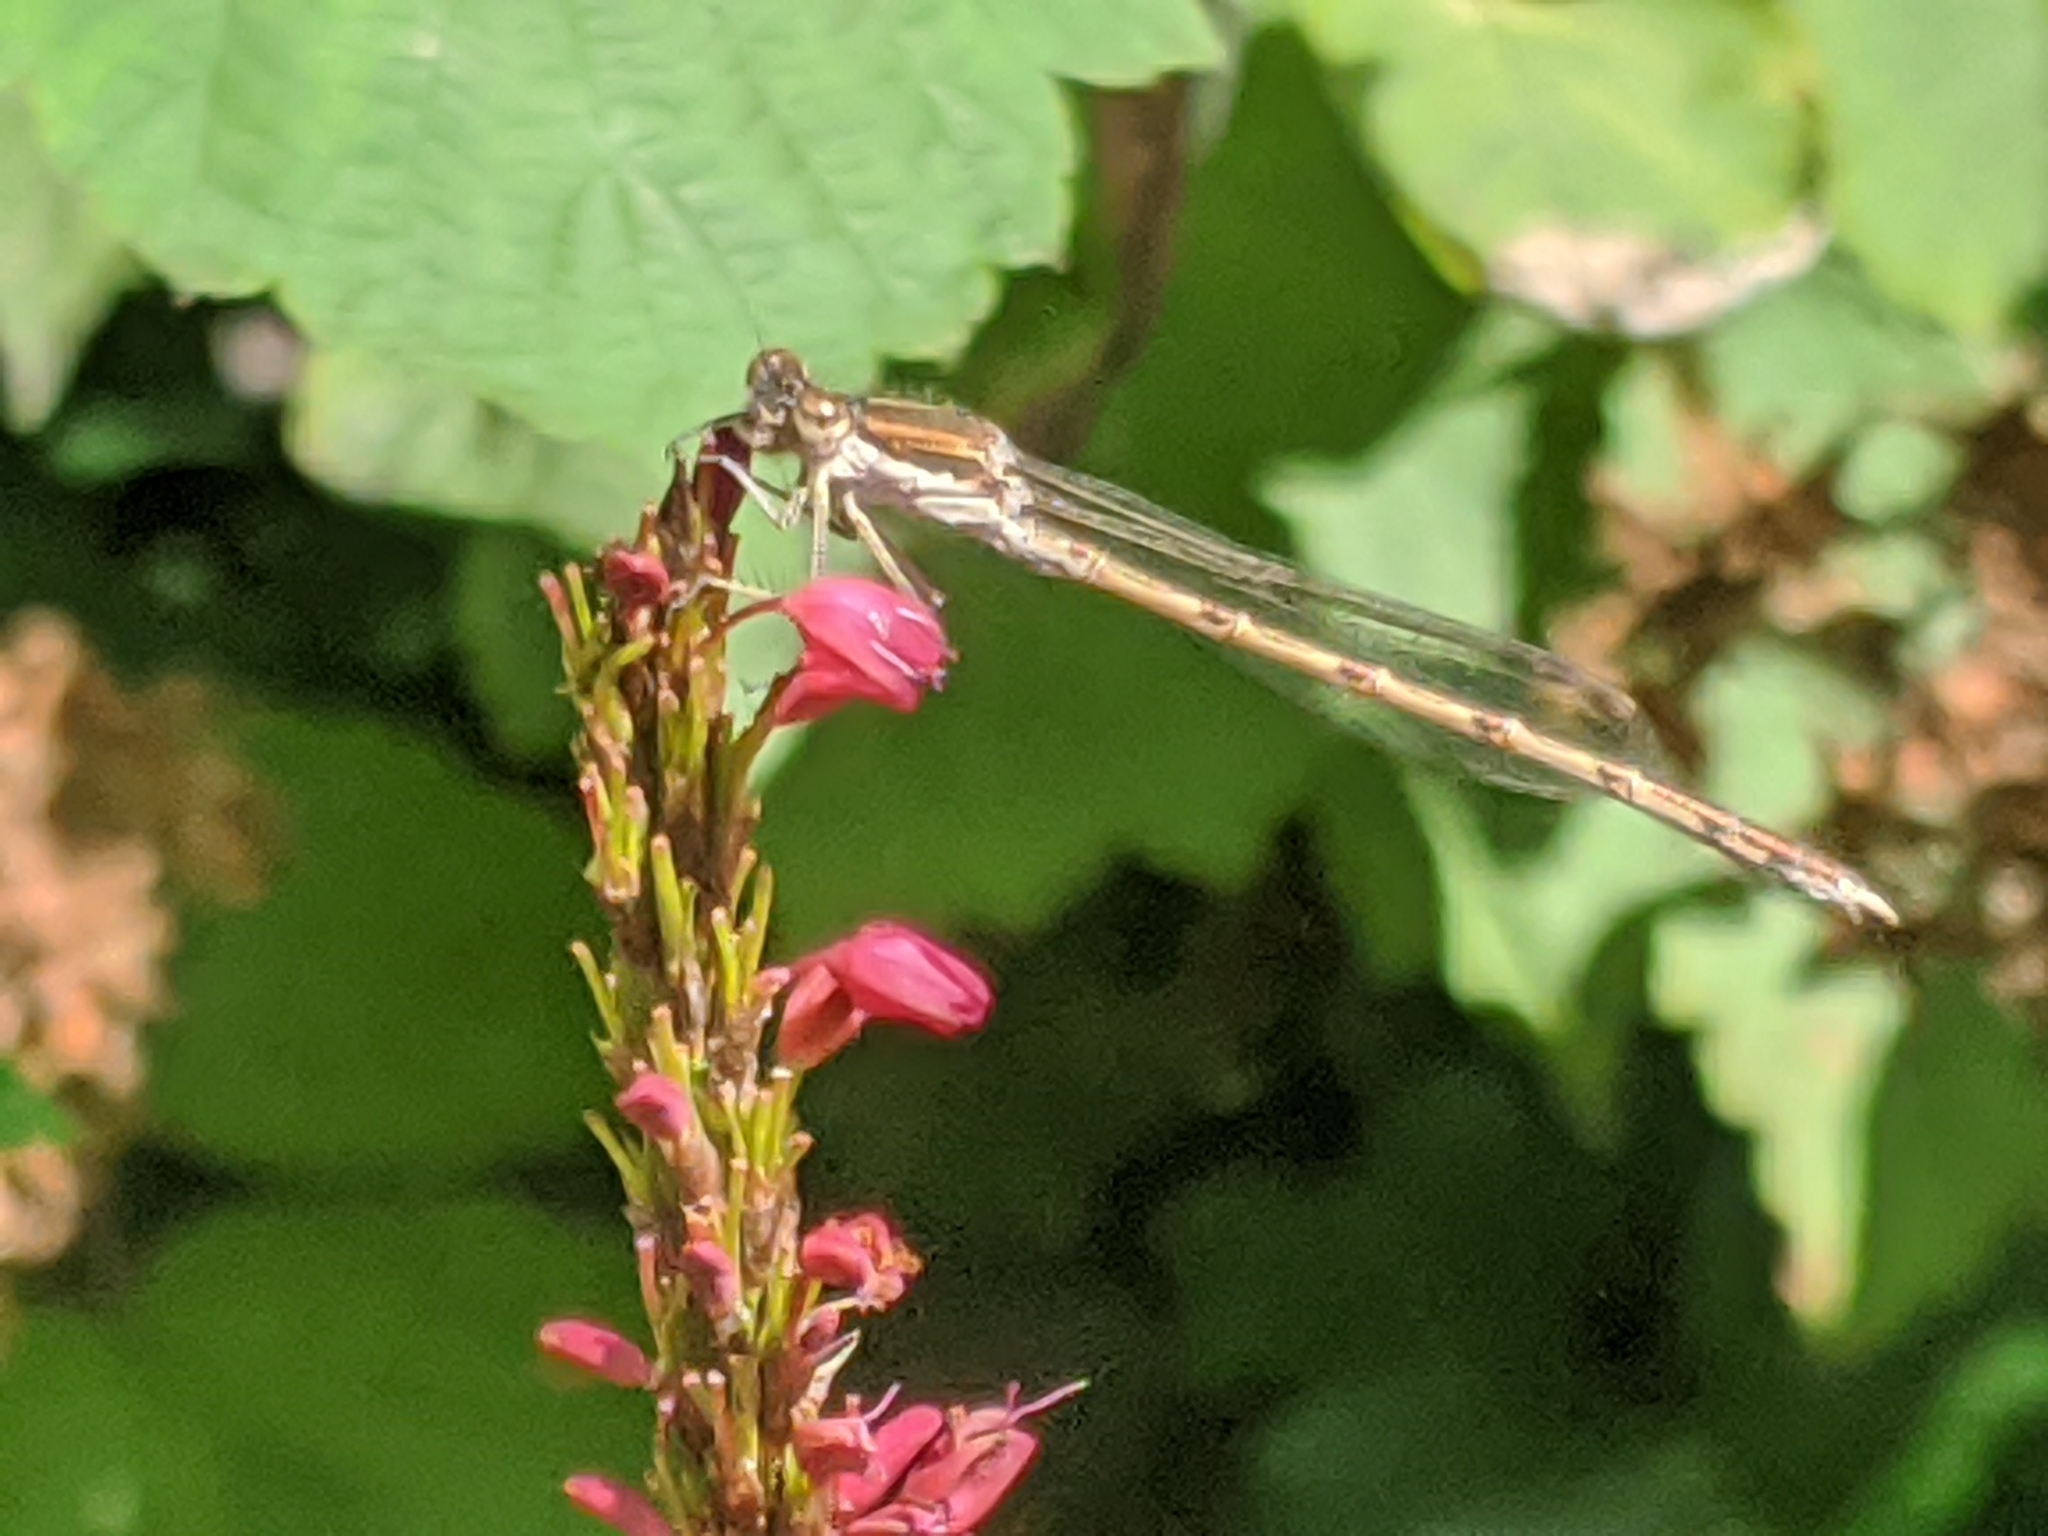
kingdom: Animalia
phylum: Arthropoda
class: Insecta
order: Odonata
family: Lestidae
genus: Sympecma
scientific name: Sympecma fusca
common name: Common winter damsel
